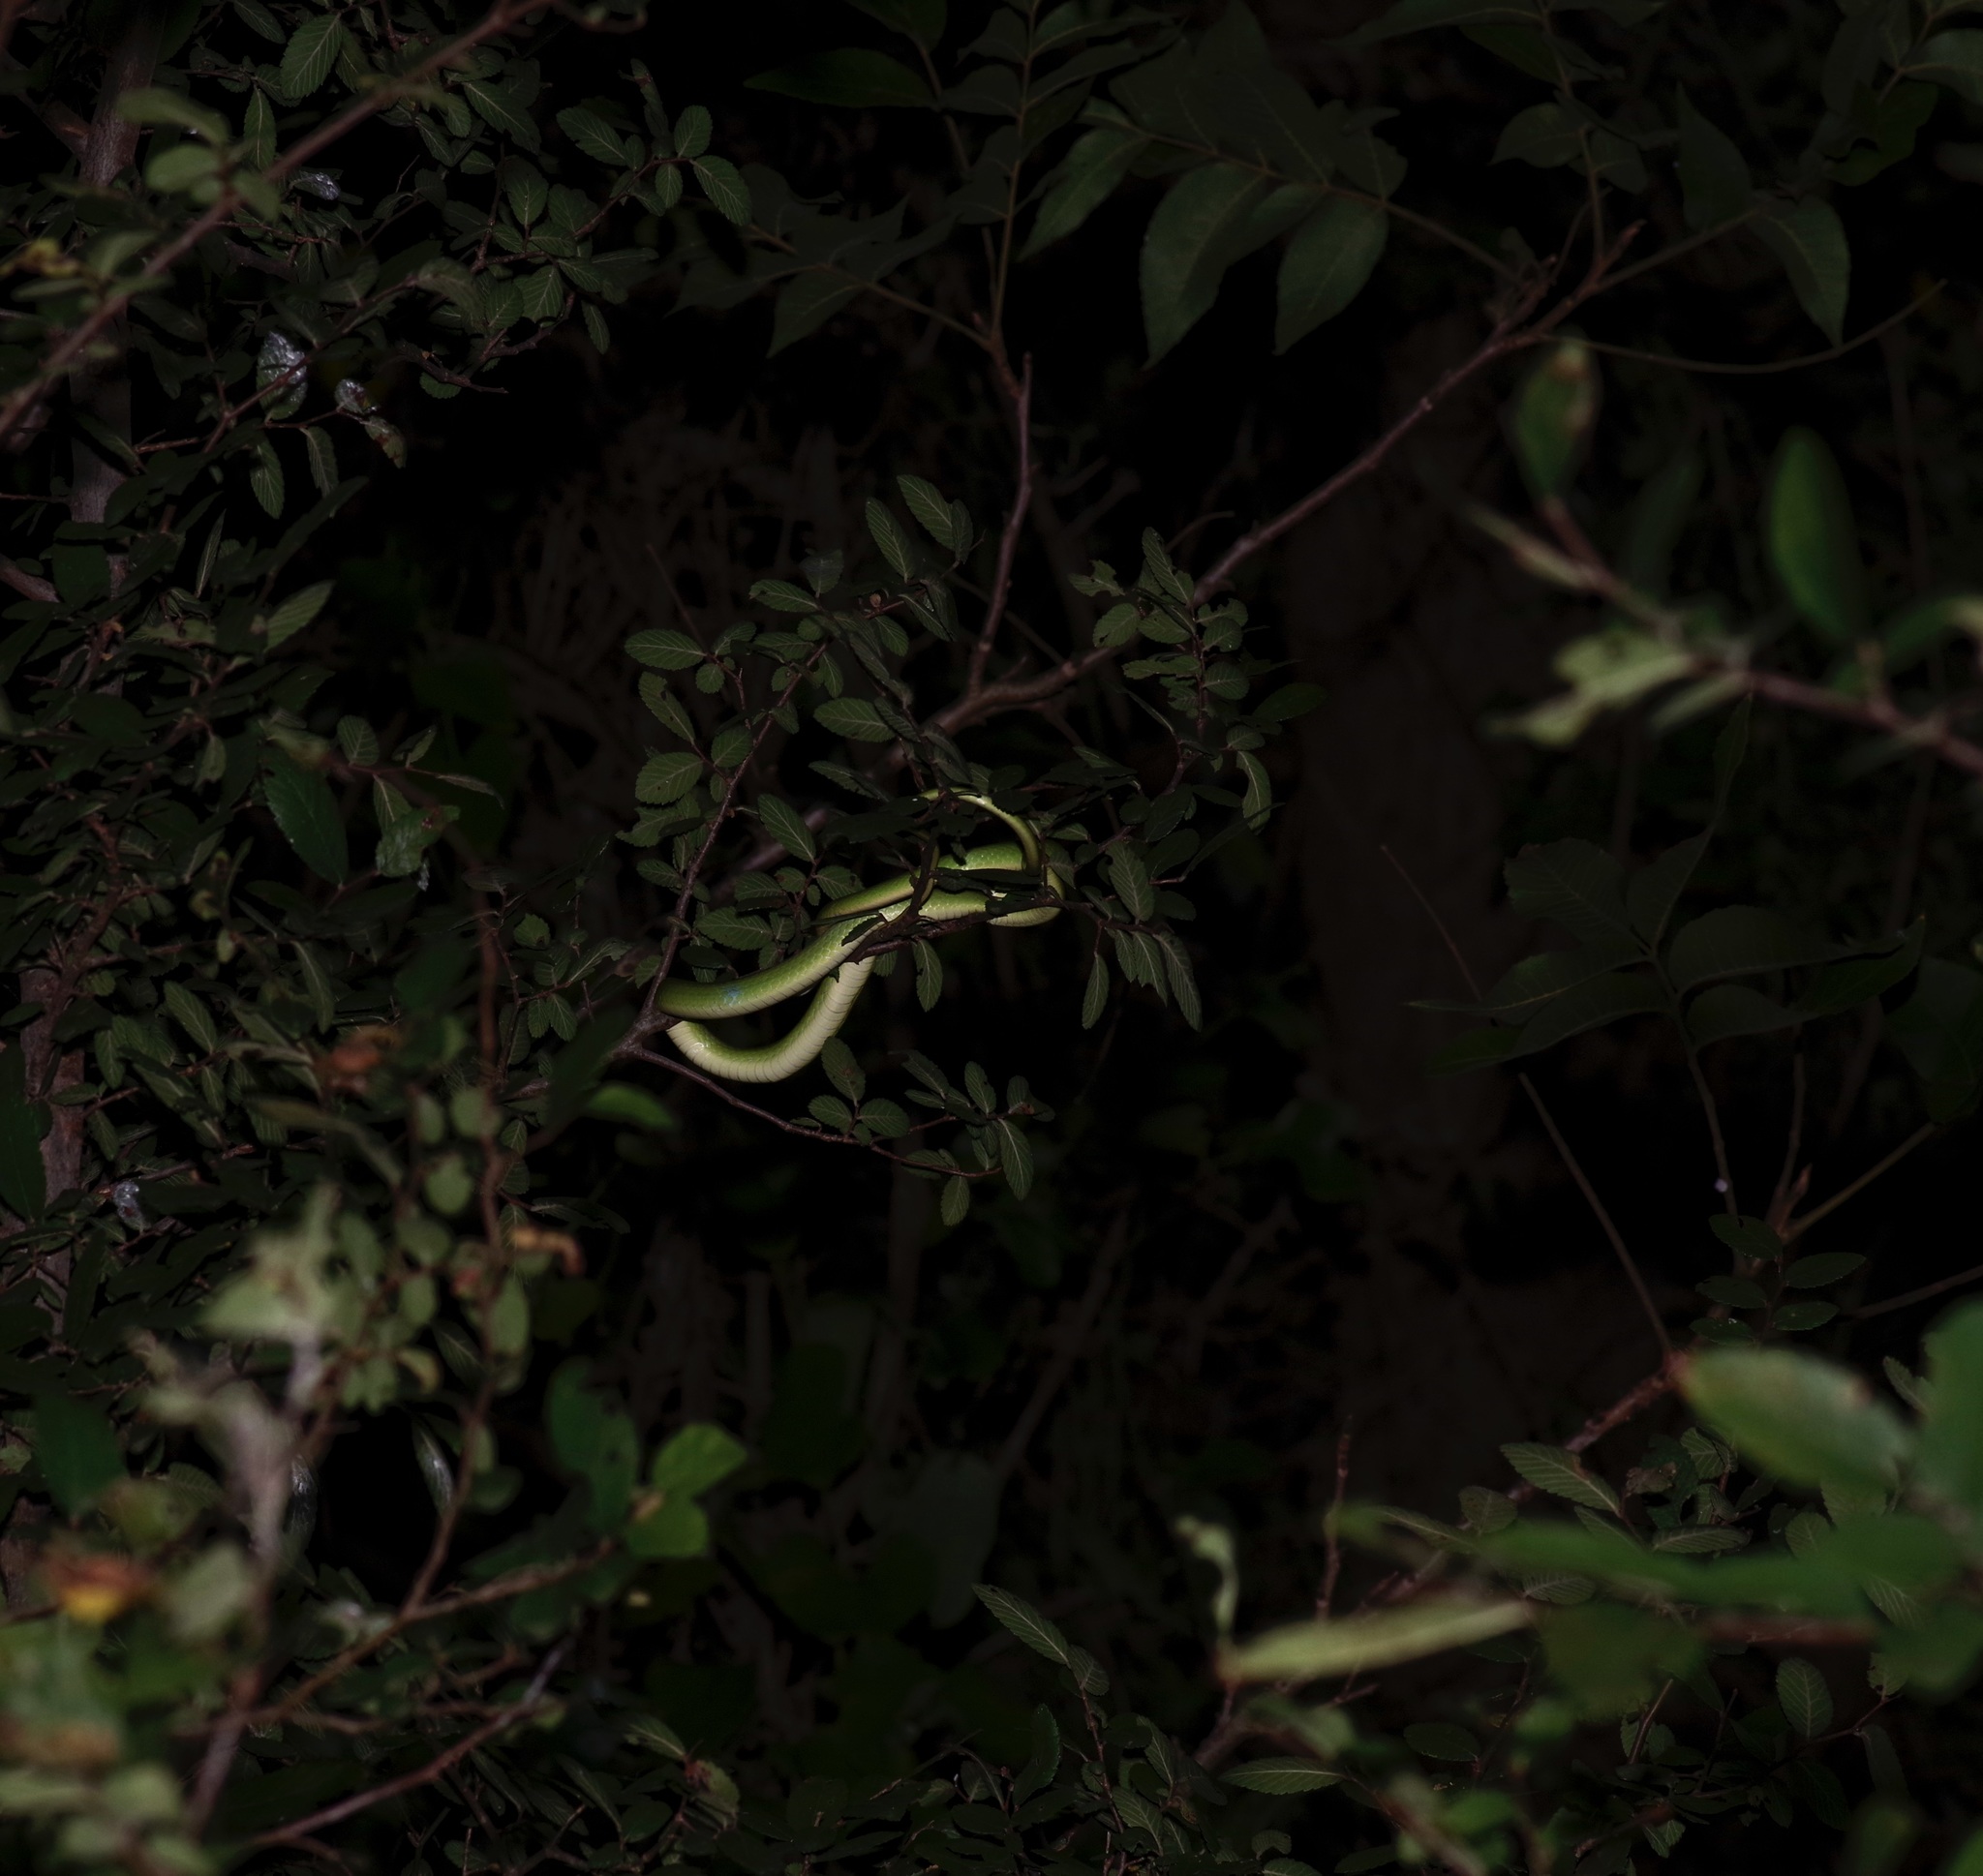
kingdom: Animalia
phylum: Chordata
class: Squamata
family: Colubridae
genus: Opheodrys
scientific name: Opheodrys aestivus
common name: Rough greensnake
